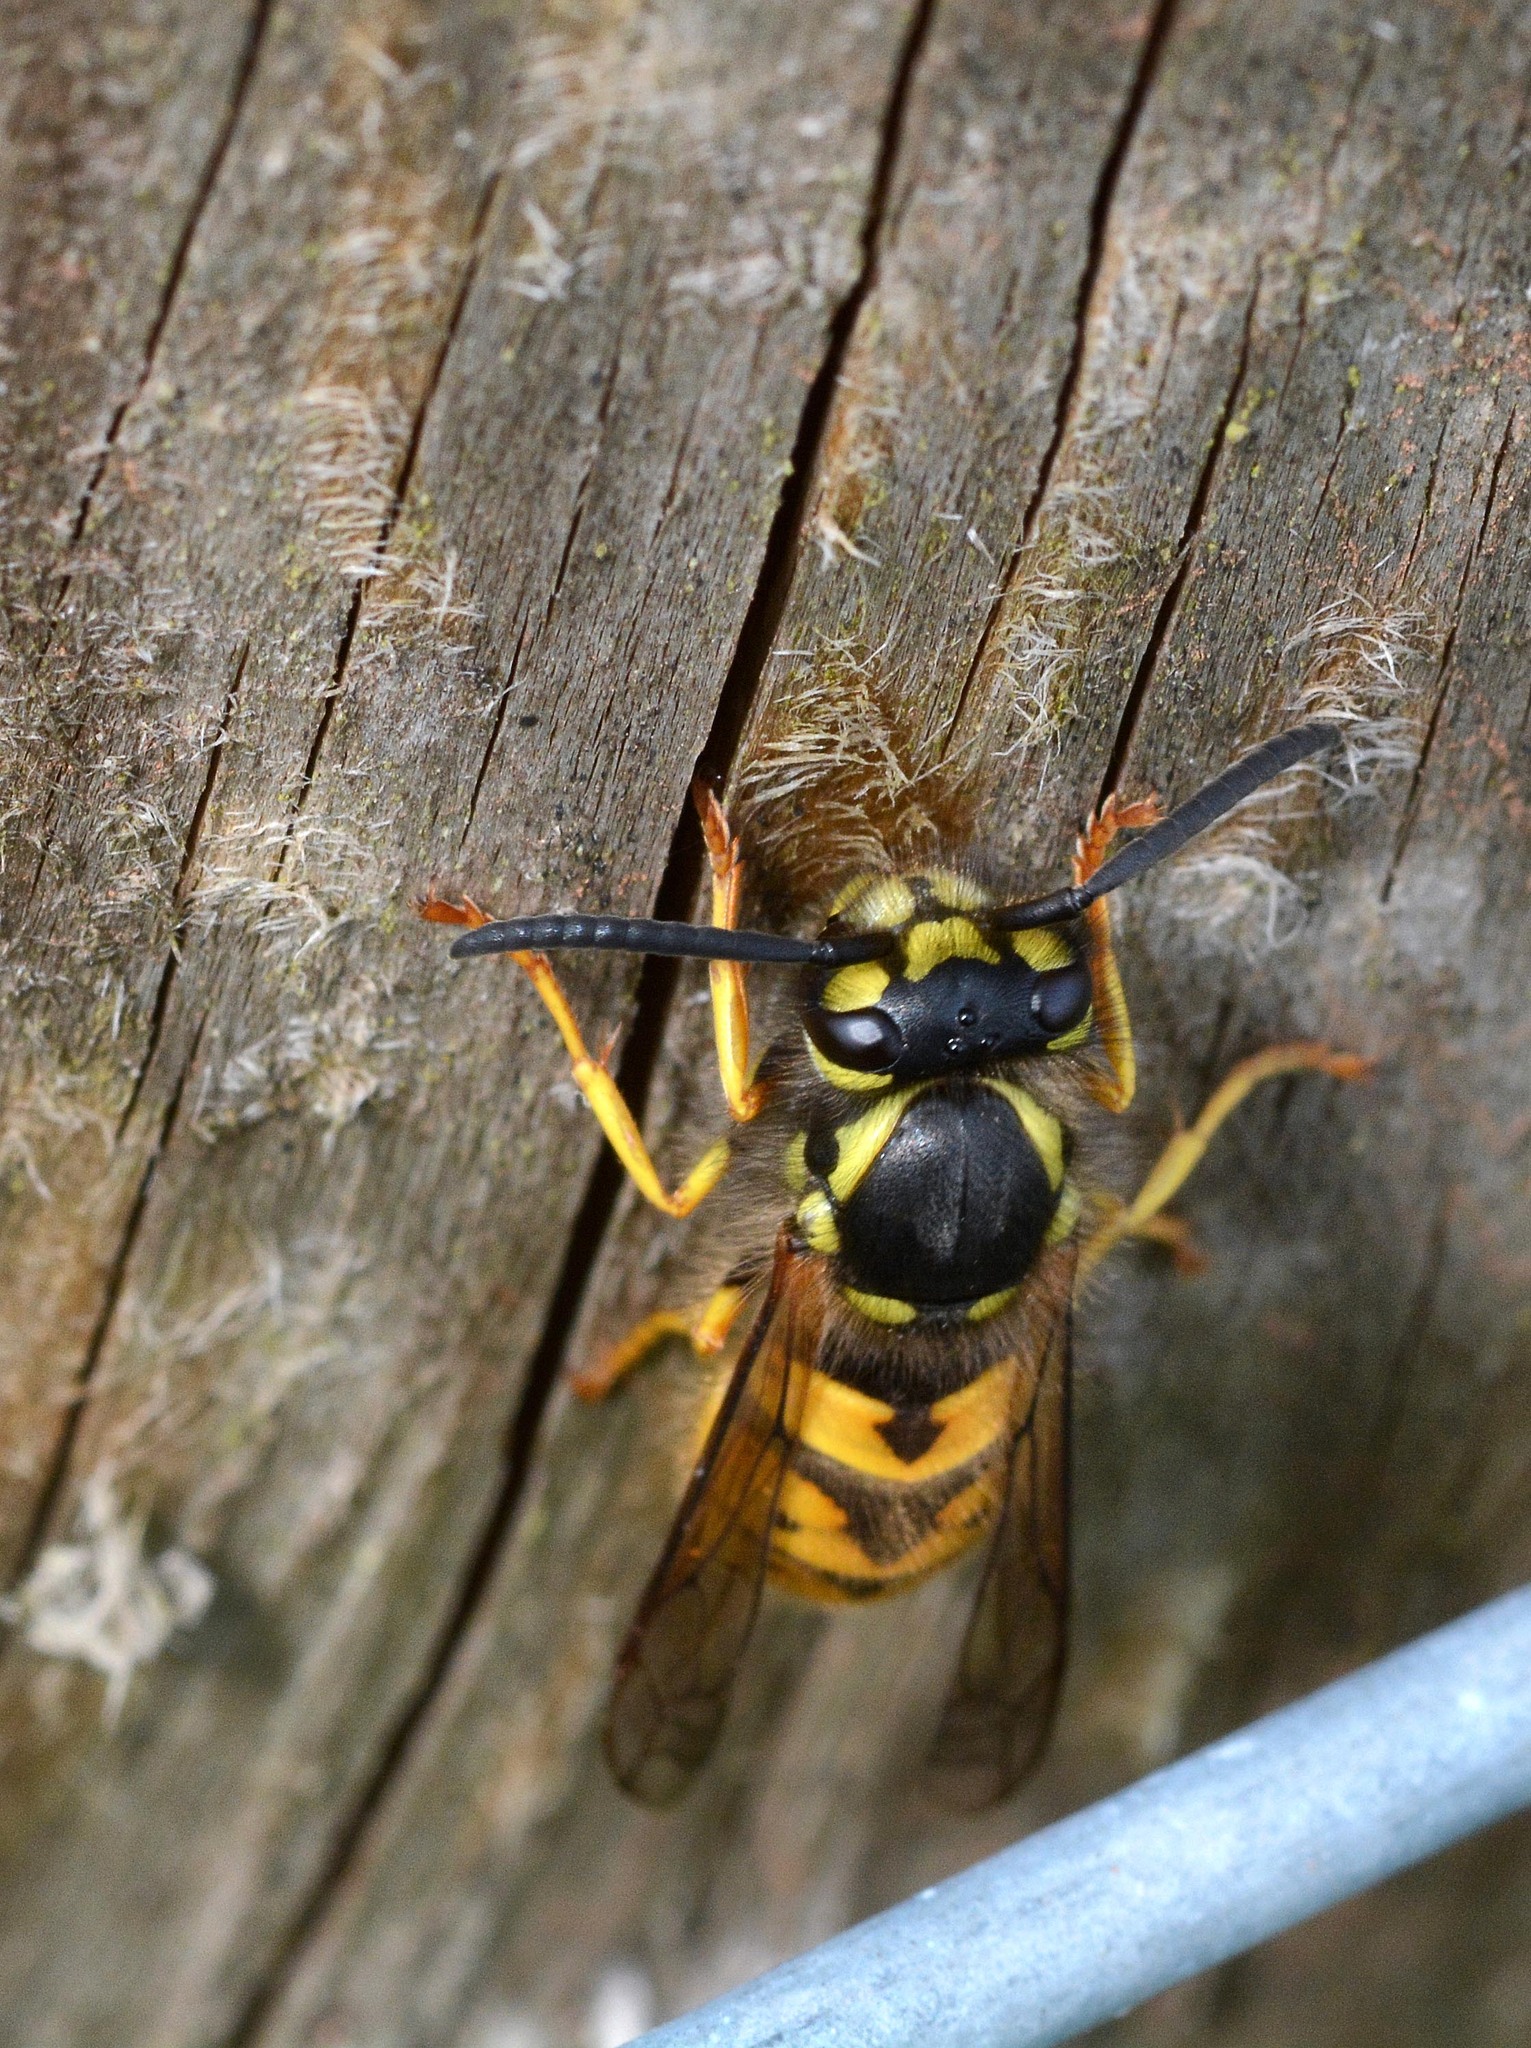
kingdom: Animalia
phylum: Arthropoda
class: Insecta
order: Hymenoptera
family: Vespidae
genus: Vespula
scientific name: Vespula germanica
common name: German wasp
